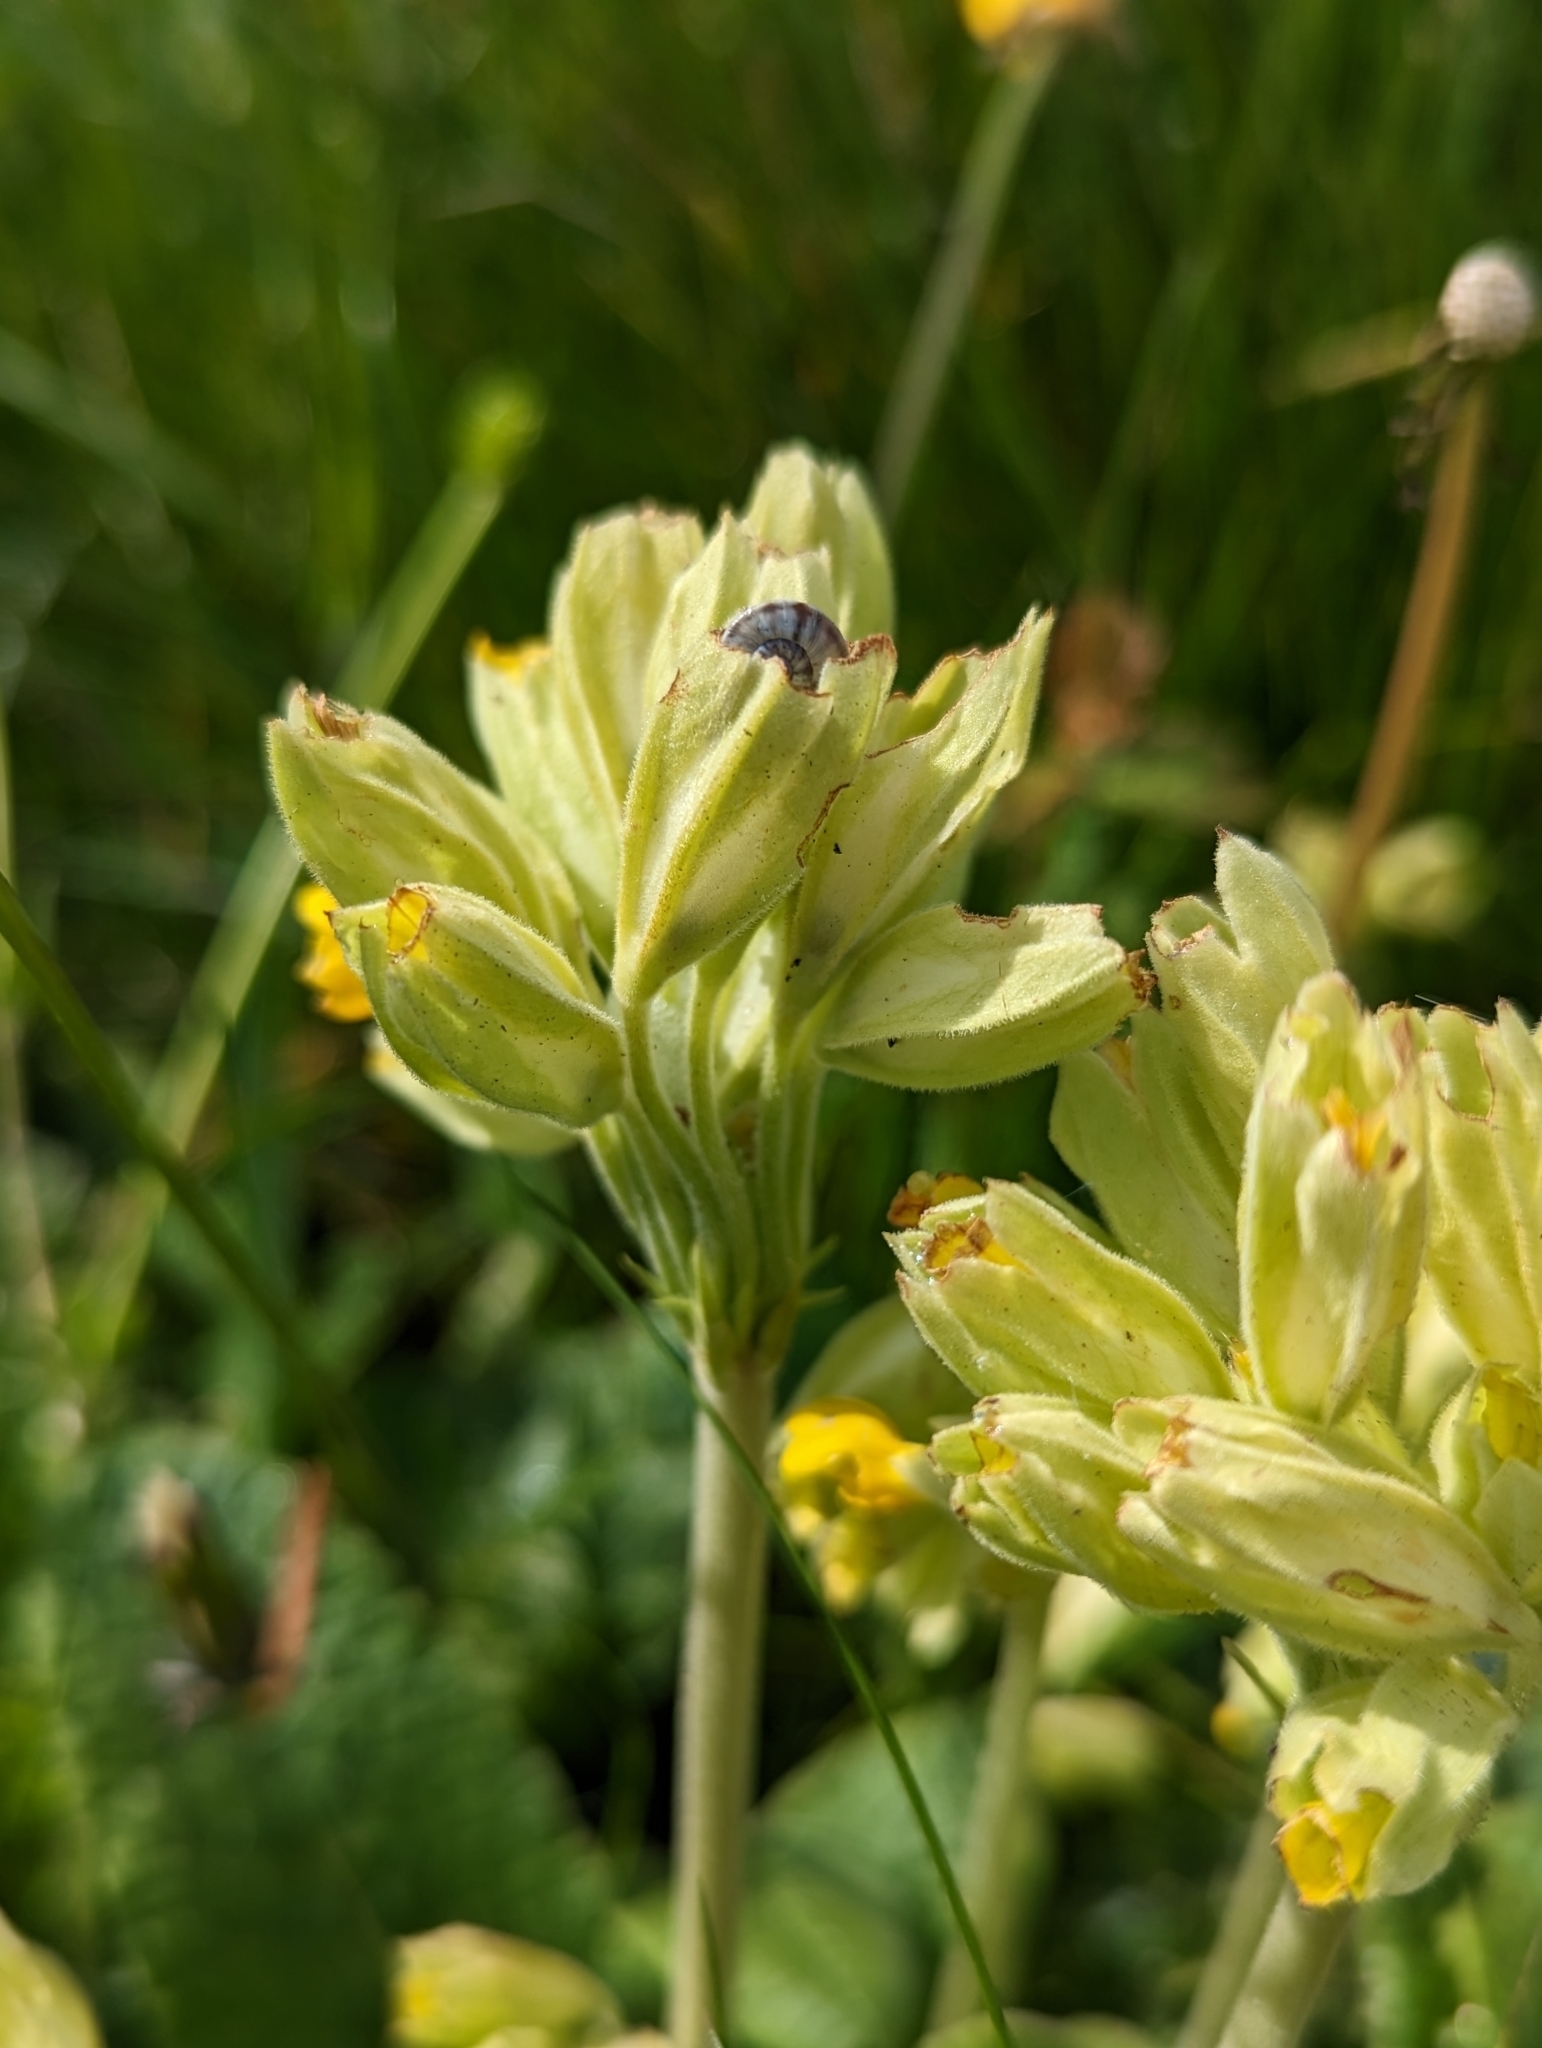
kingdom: Plantae
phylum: Tracheophyta
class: Magnoliopsida
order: Ericales
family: Primulaceae
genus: Primula
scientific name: Primula veris
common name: Cowslip
